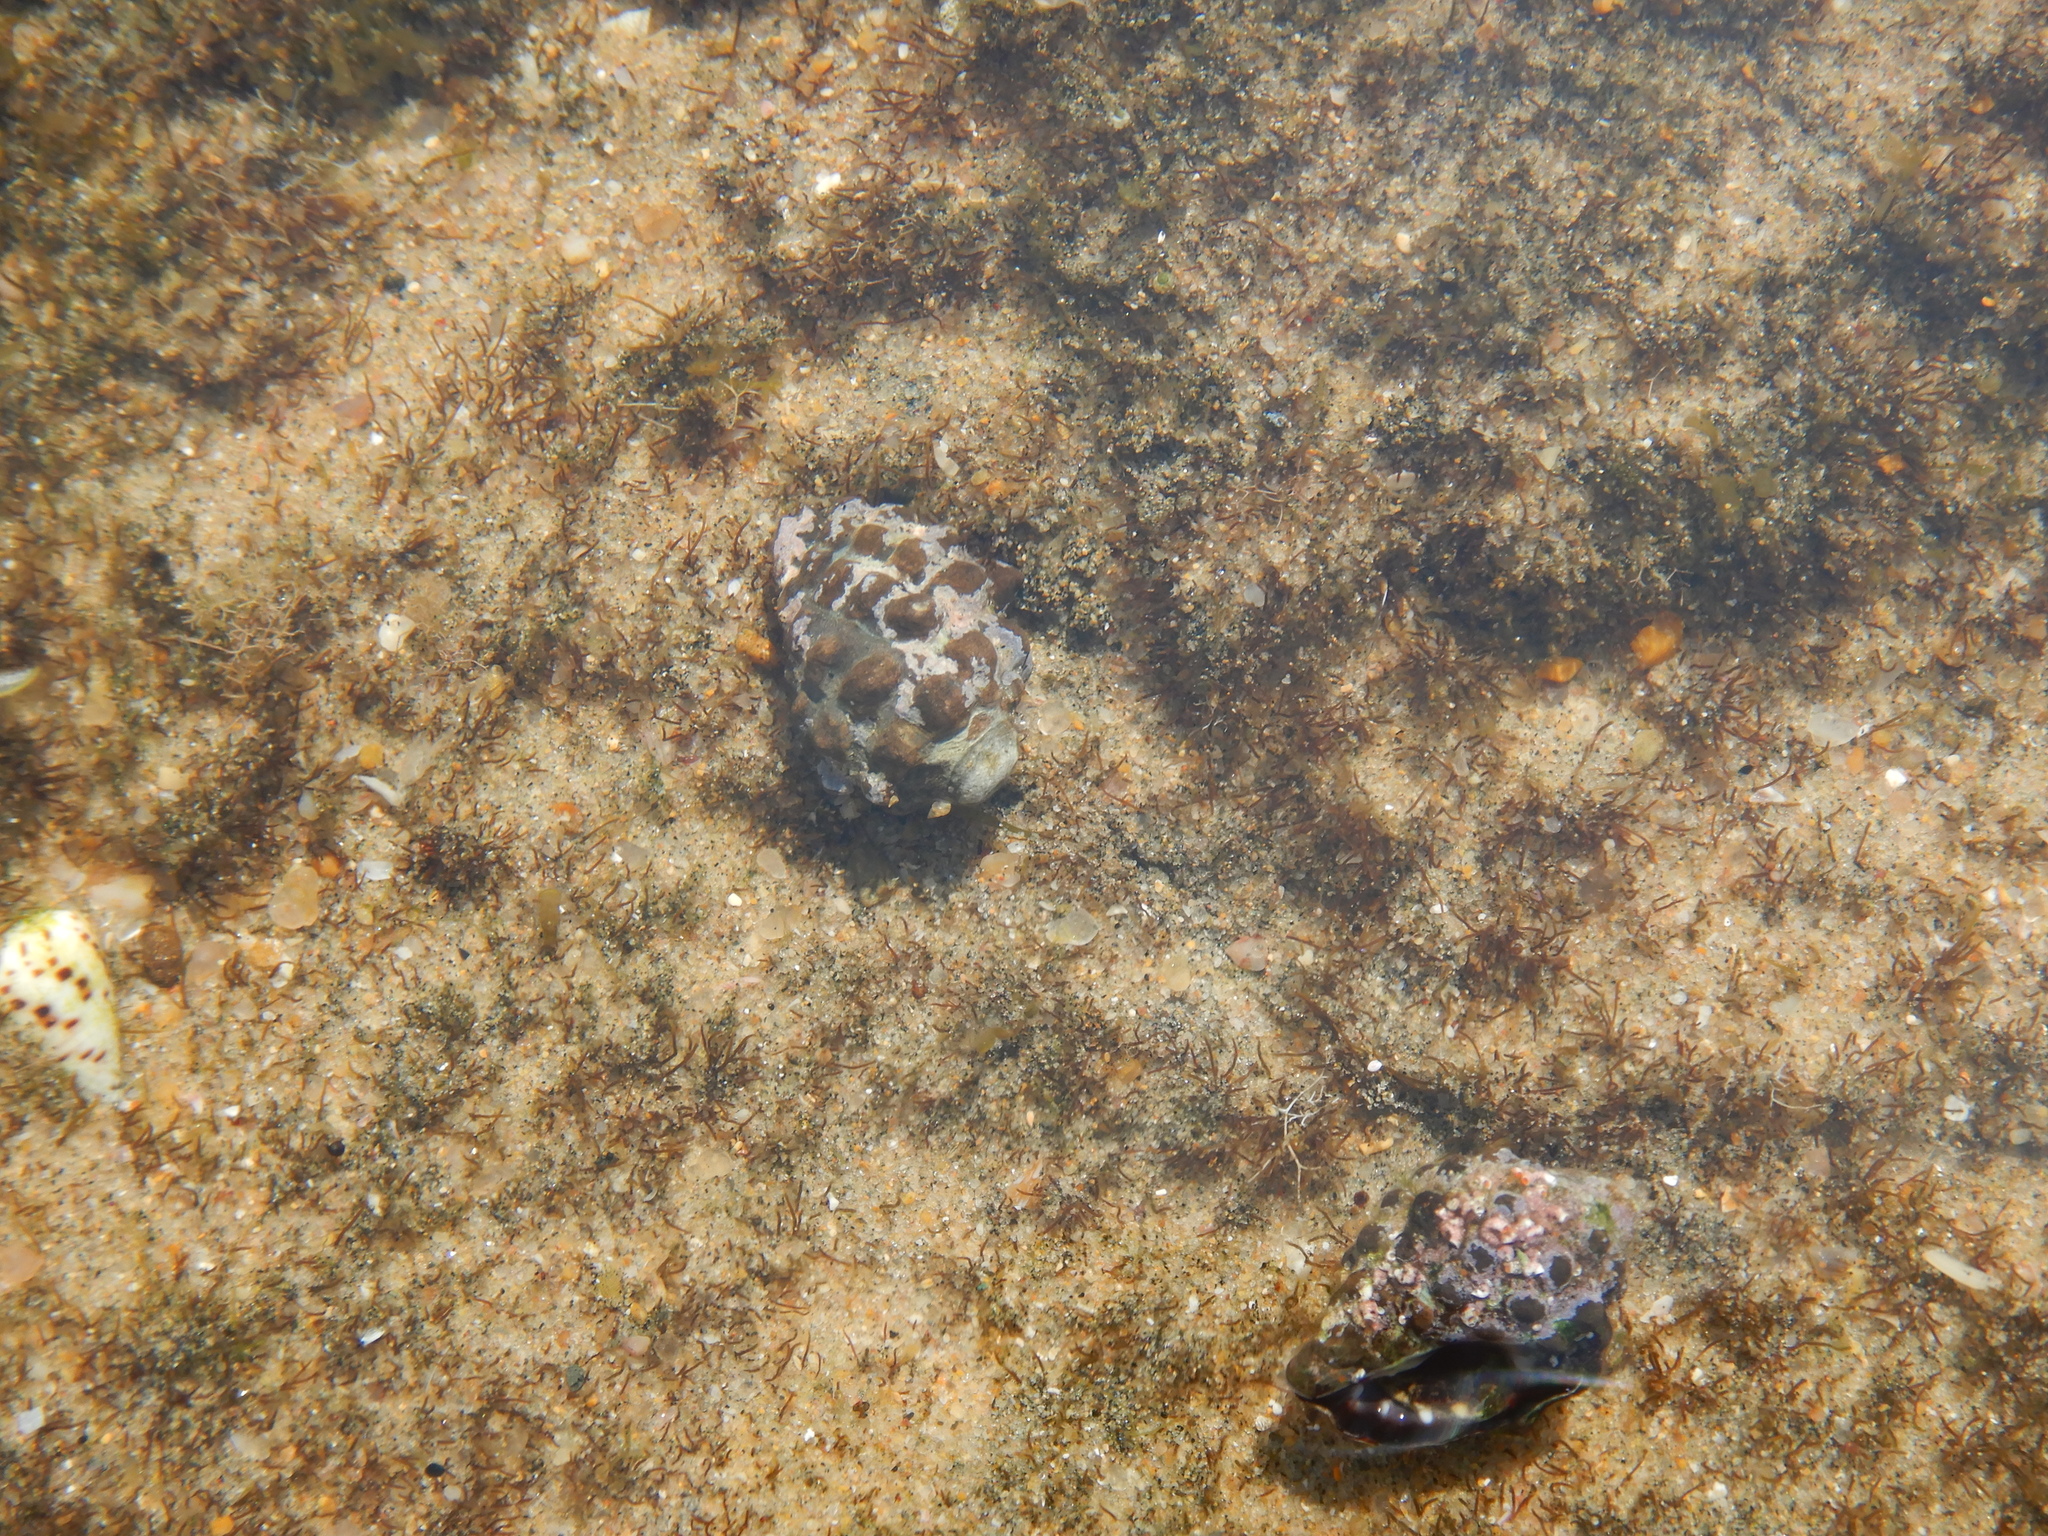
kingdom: Animalia
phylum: Mollusca
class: Gastropoda
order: Neogastropoda
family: Muricidae
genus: Tenguella
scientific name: Tenguella granulata
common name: Granular drupe
